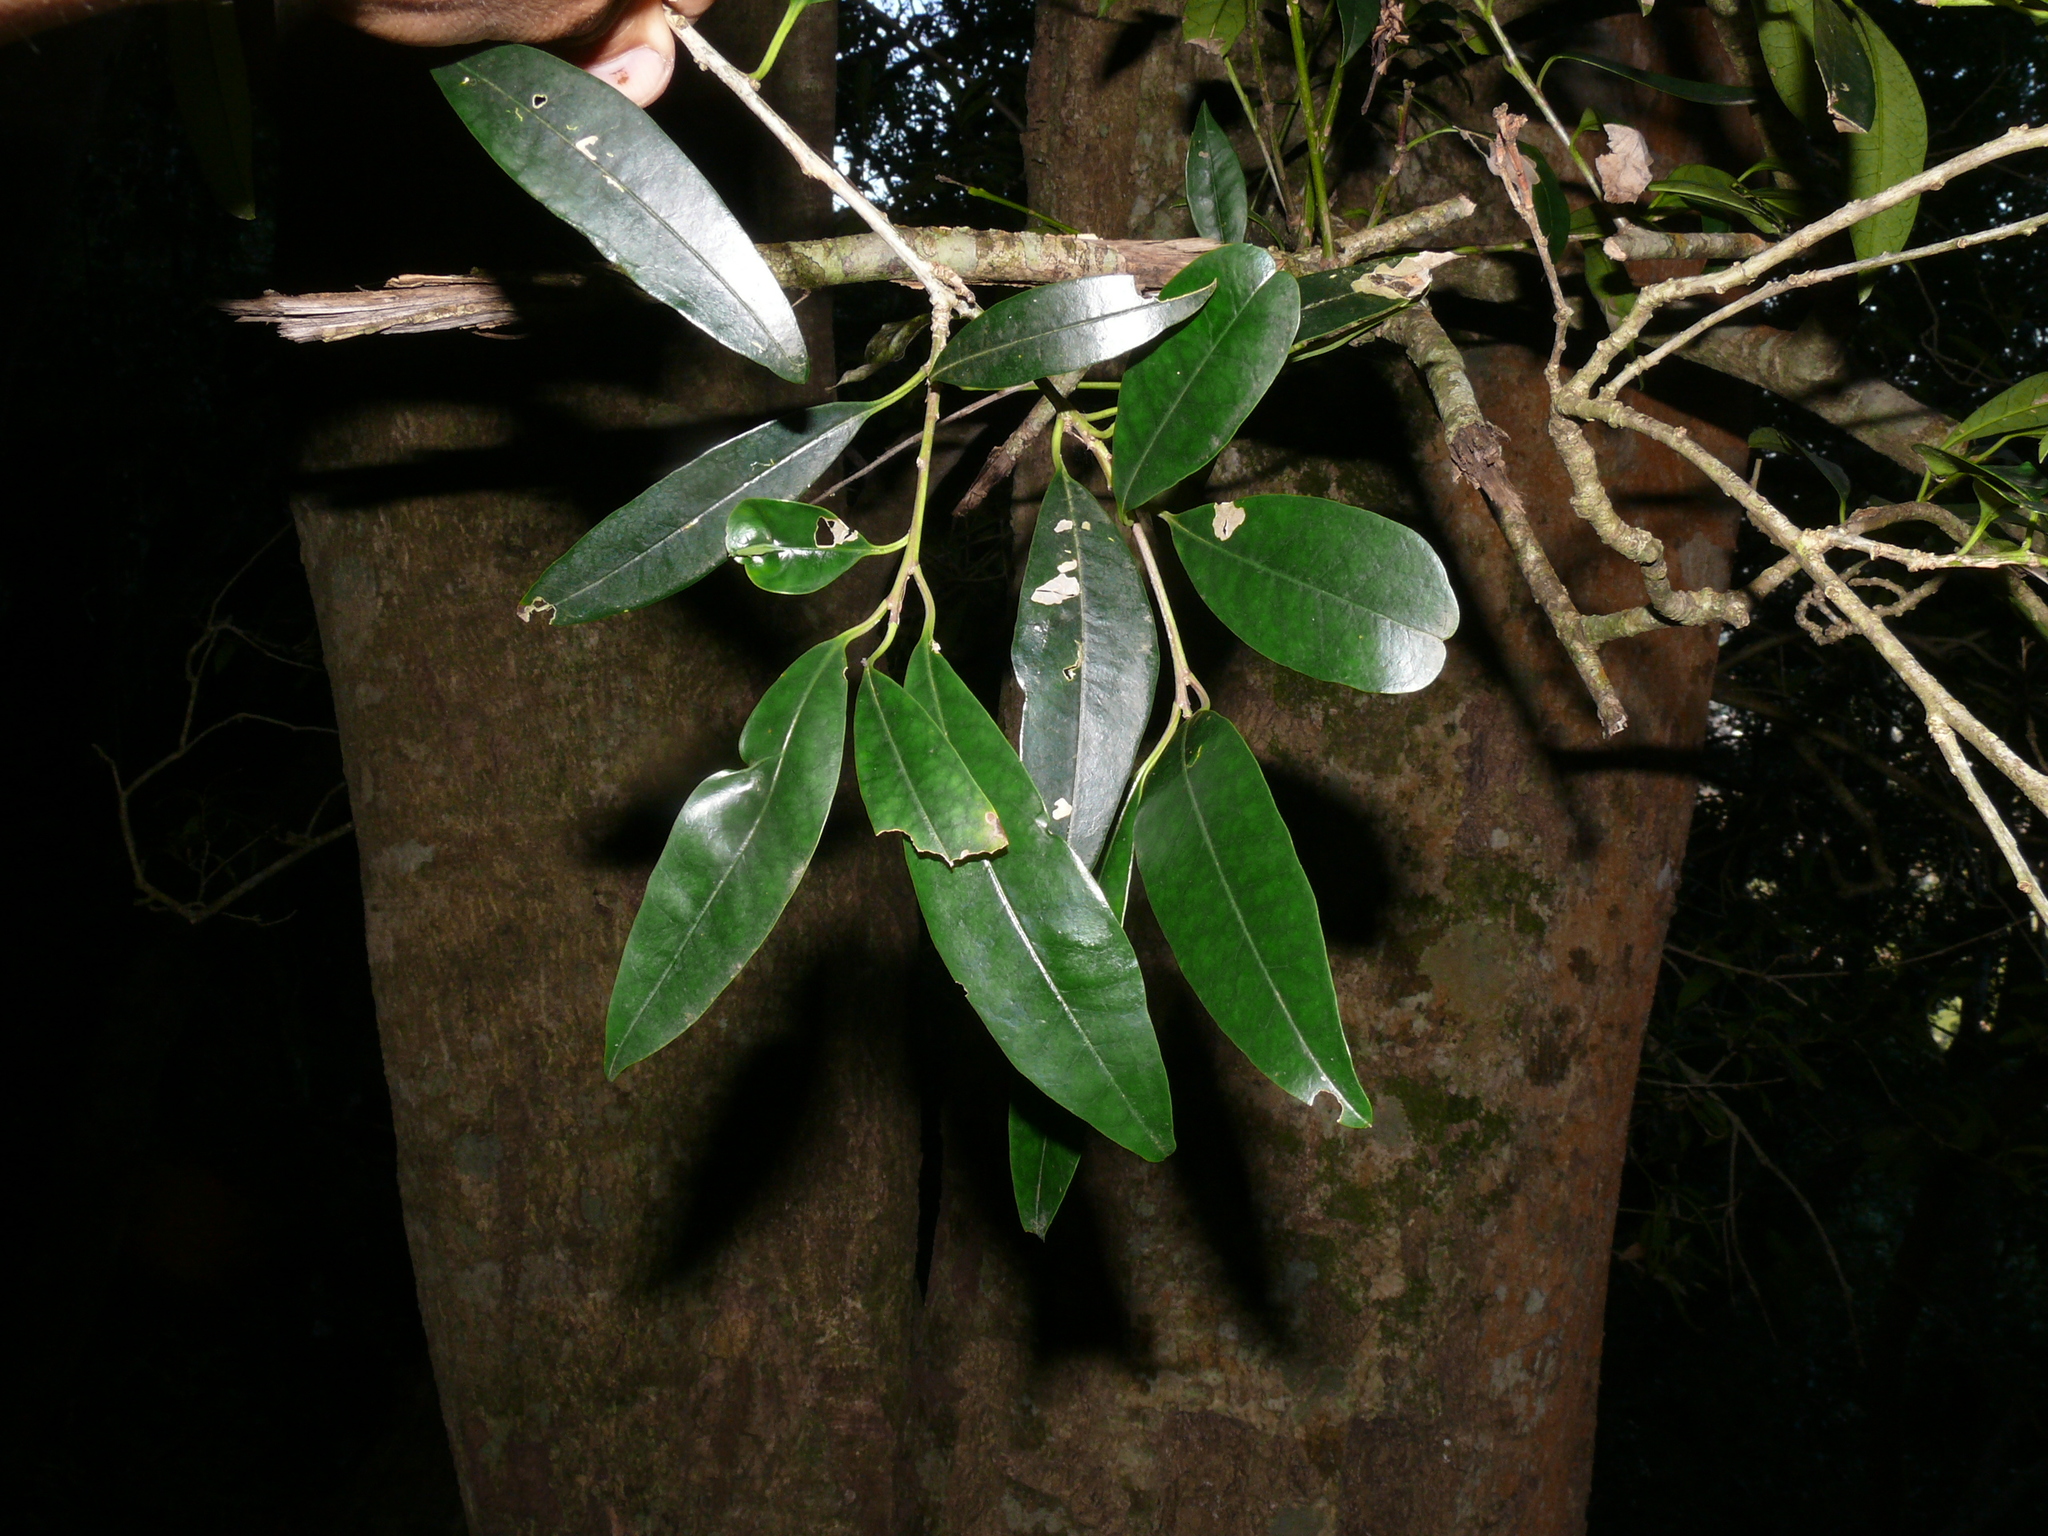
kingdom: Plantae
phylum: Tracheophyta
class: Magnoliopsida
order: Aquifoliales
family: Aquifoliaceae
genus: Ilex
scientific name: Ilex mitis
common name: African holly
